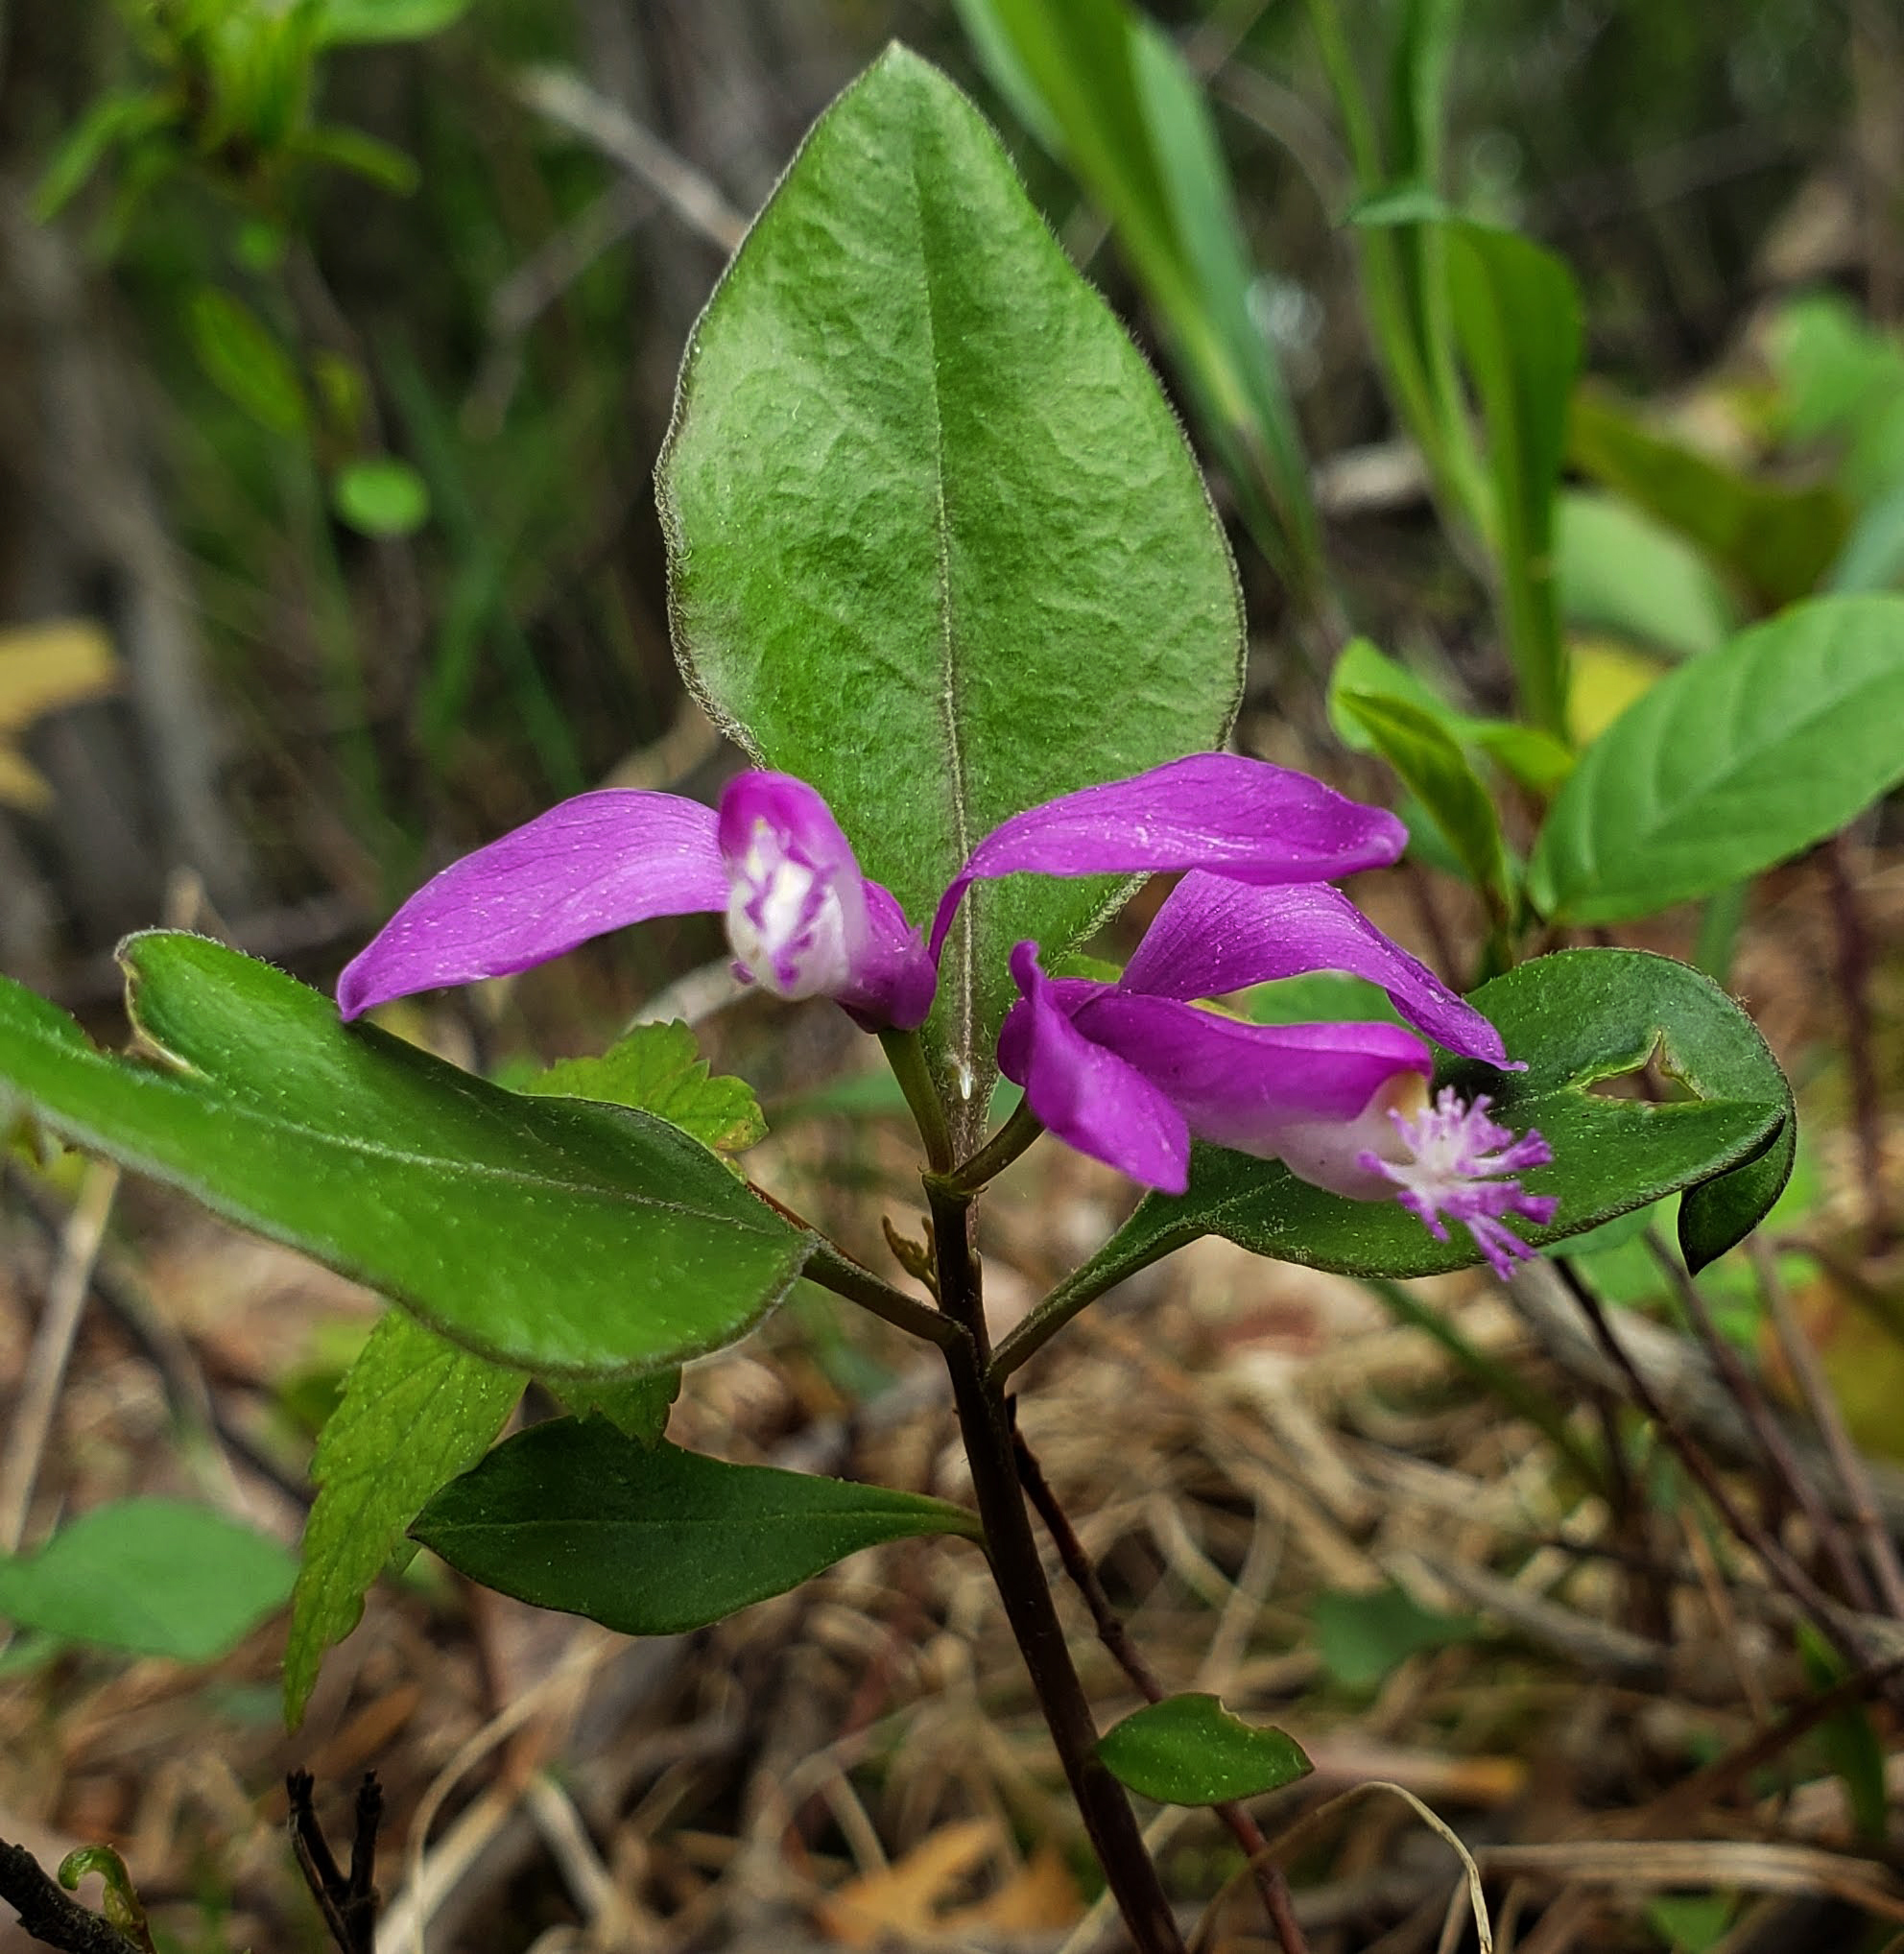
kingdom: Plantae
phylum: Tracheophyta
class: Magnoliopsida
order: Fabales
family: Polygalaceae
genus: Polygaloides
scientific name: Polygaloides paucifolia
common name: Bird-on-the-wing
